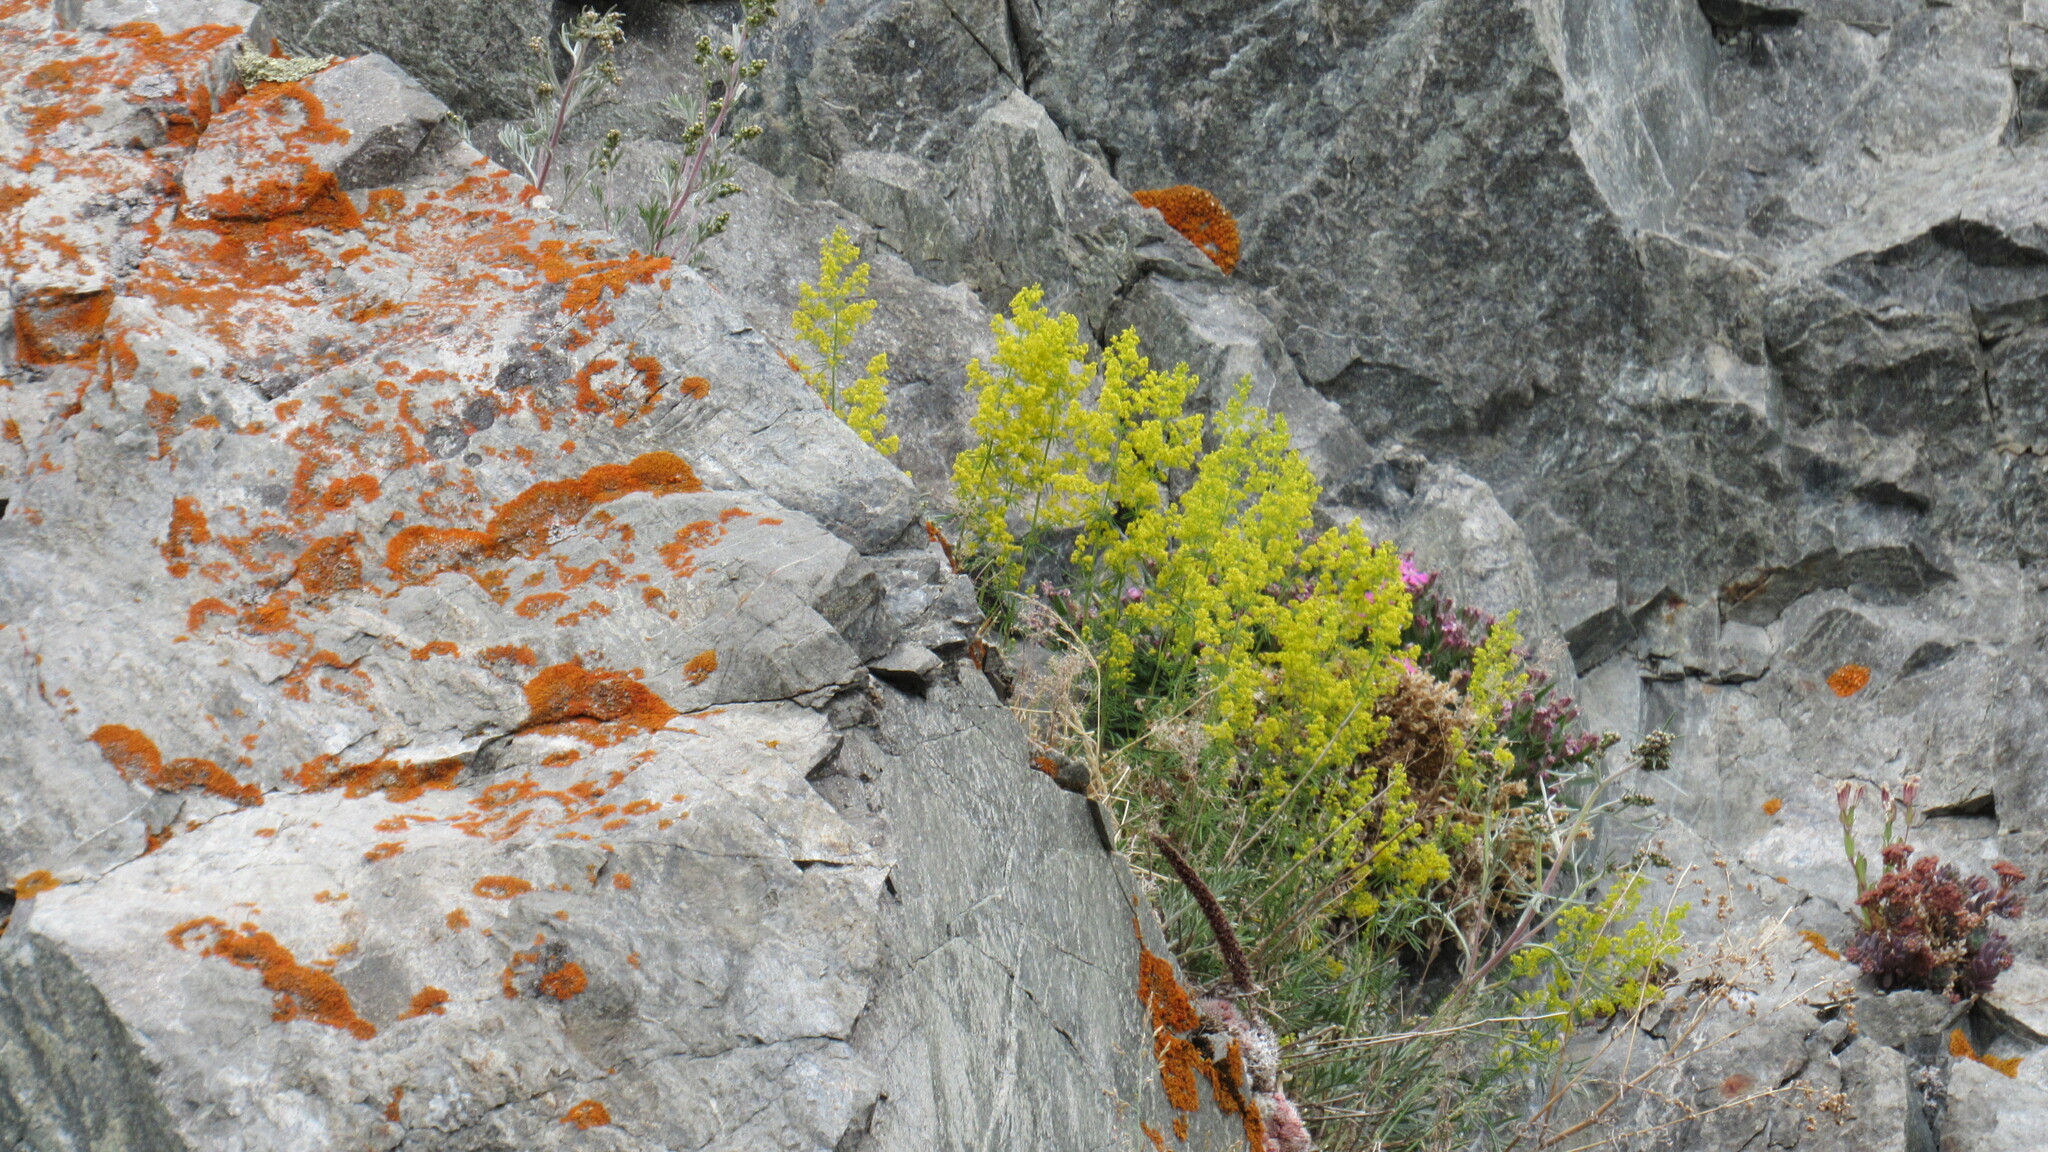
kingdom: Plantae
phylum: Tracheophyta
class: Magnoliopsida
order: Gentianales
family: Rubiaceae
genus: Galium
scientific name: Galium verum
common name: Lady's bedstraw
